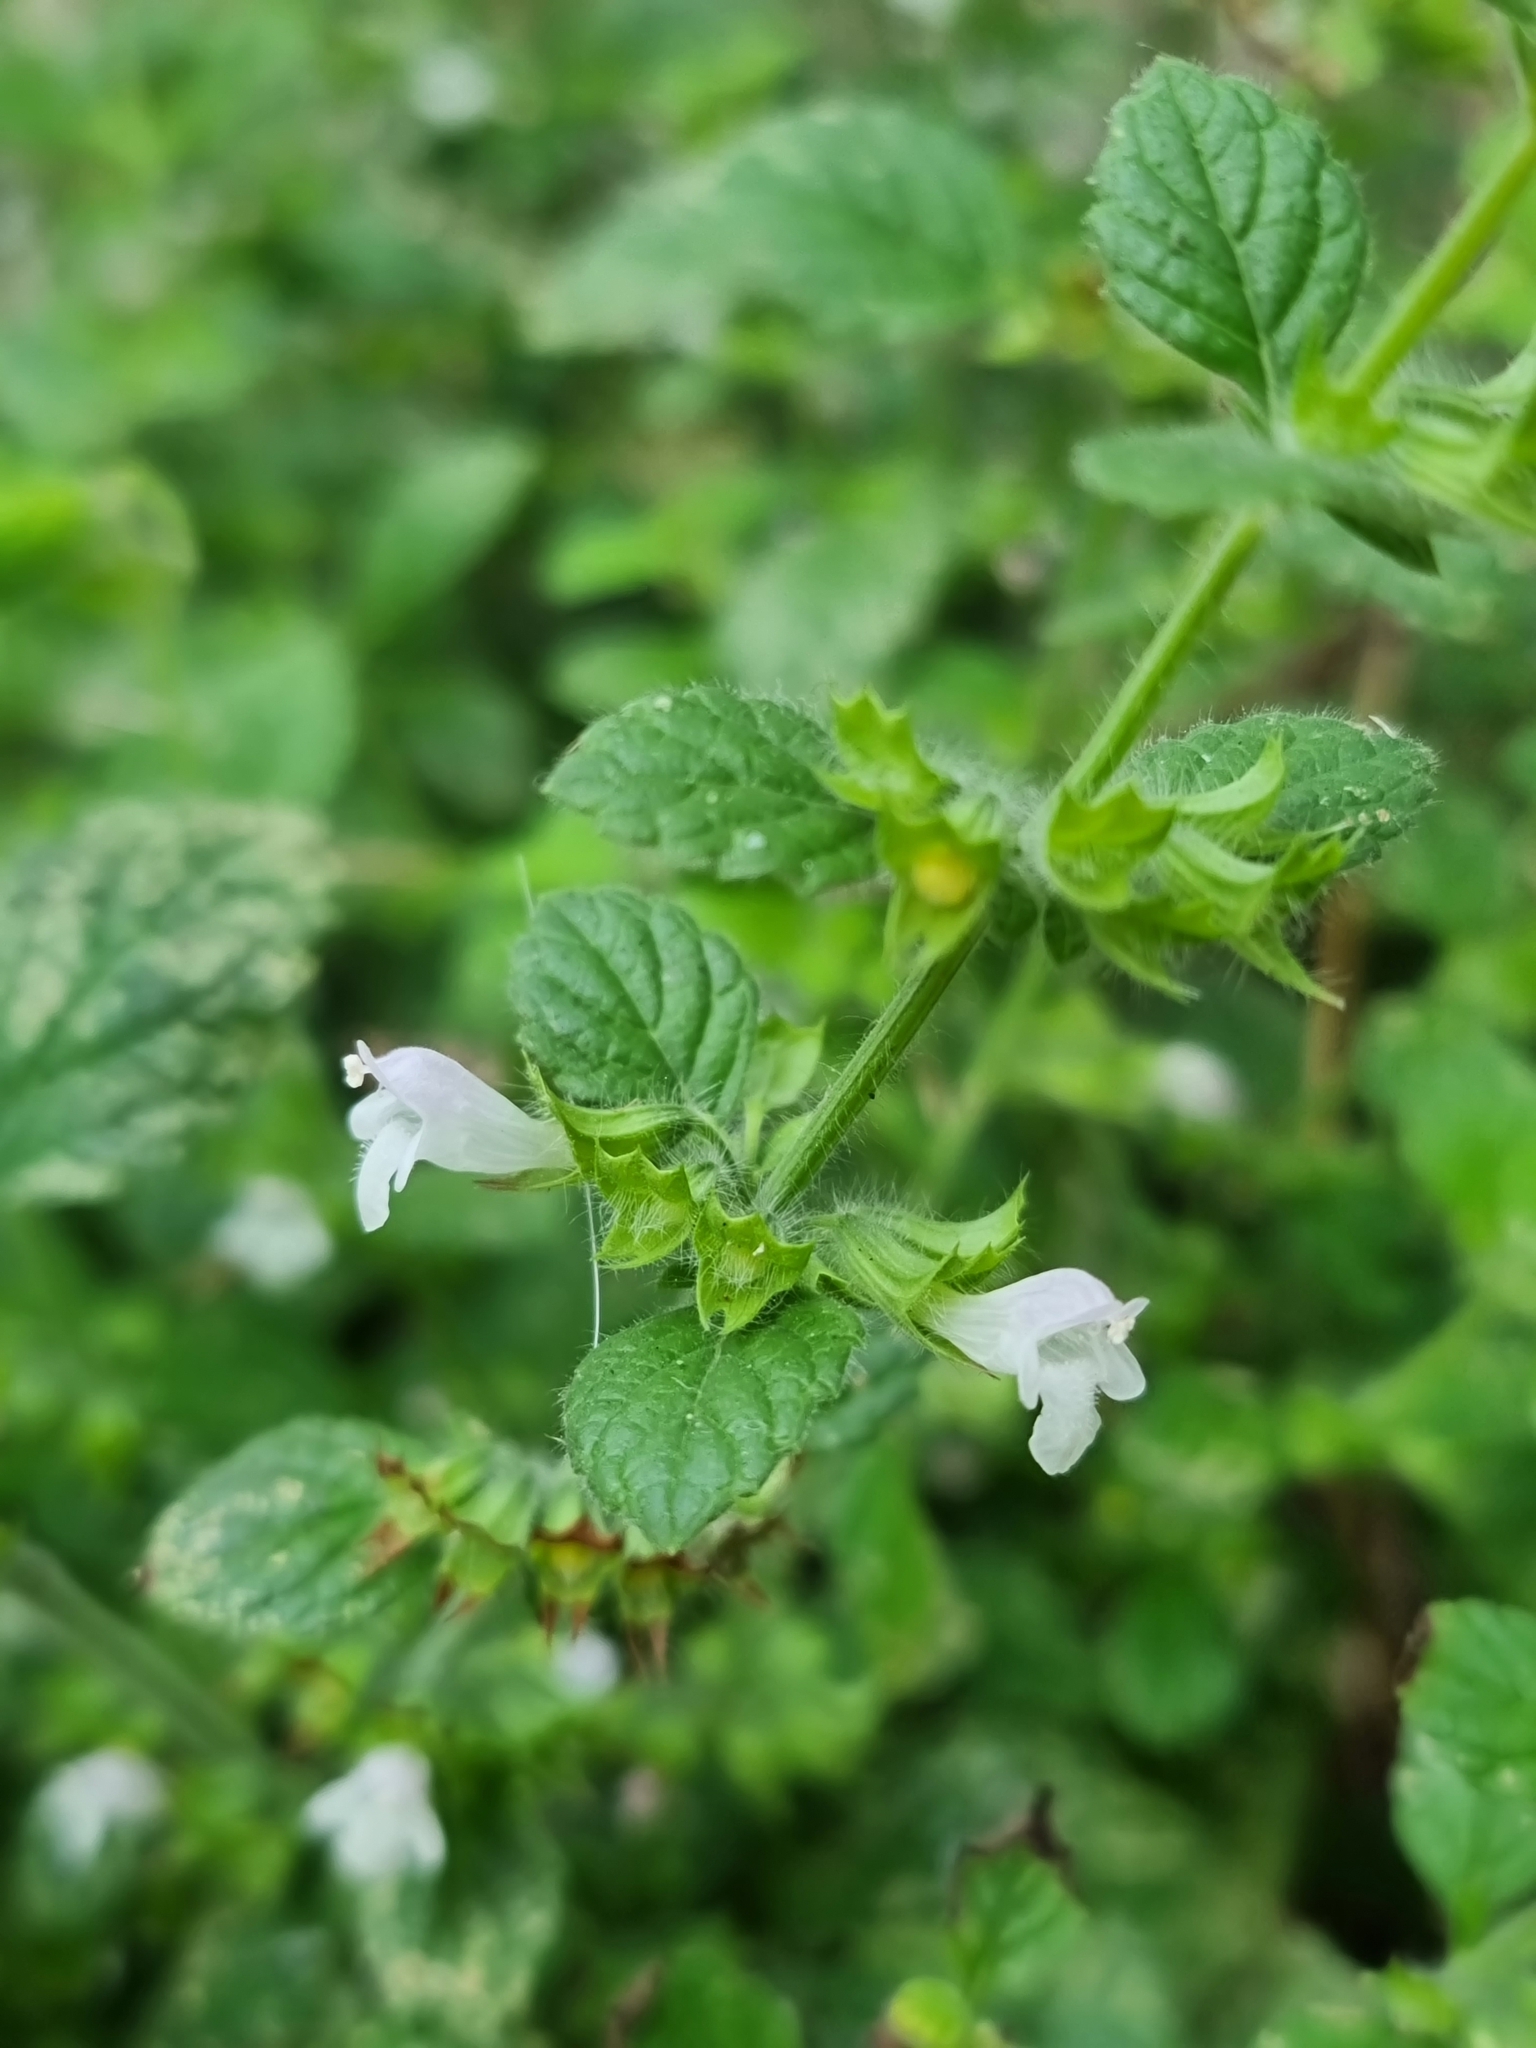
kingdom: Plantae
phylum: Tracheophyta
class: Magnoliopsida
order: Lamiales
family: Lamiaceae
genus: Melissa
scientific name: Melissa officinalis
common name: Balm
